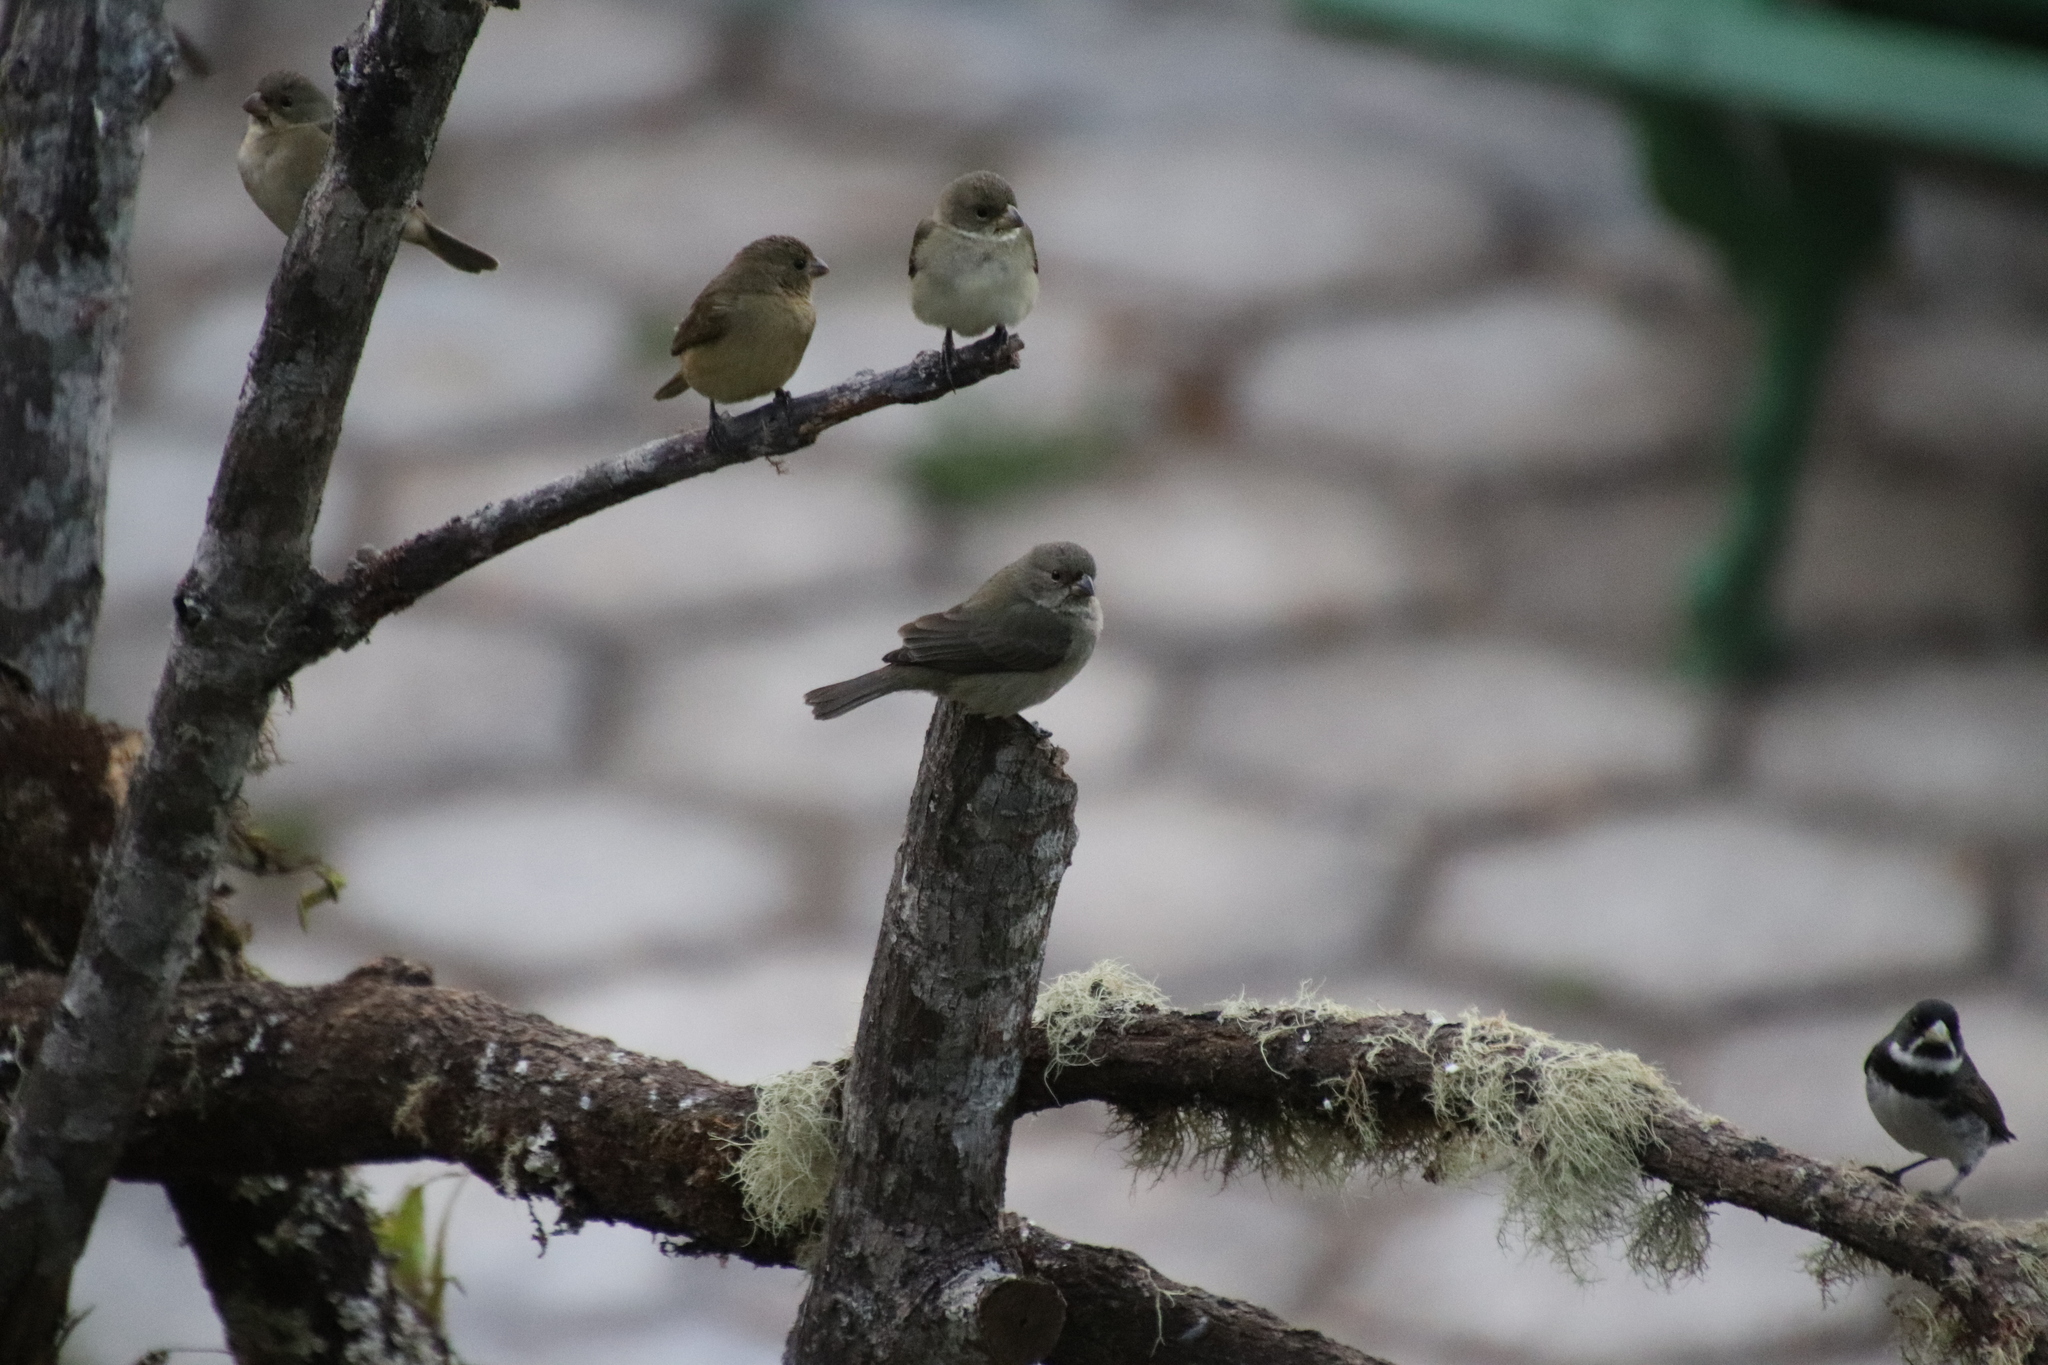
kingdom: Animalia
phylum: Chordata
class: Aves
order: Passeriformes
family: Thraupidae
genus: Sporophila
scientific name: Sporophila caerulescens
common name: Double-collared seedeater
